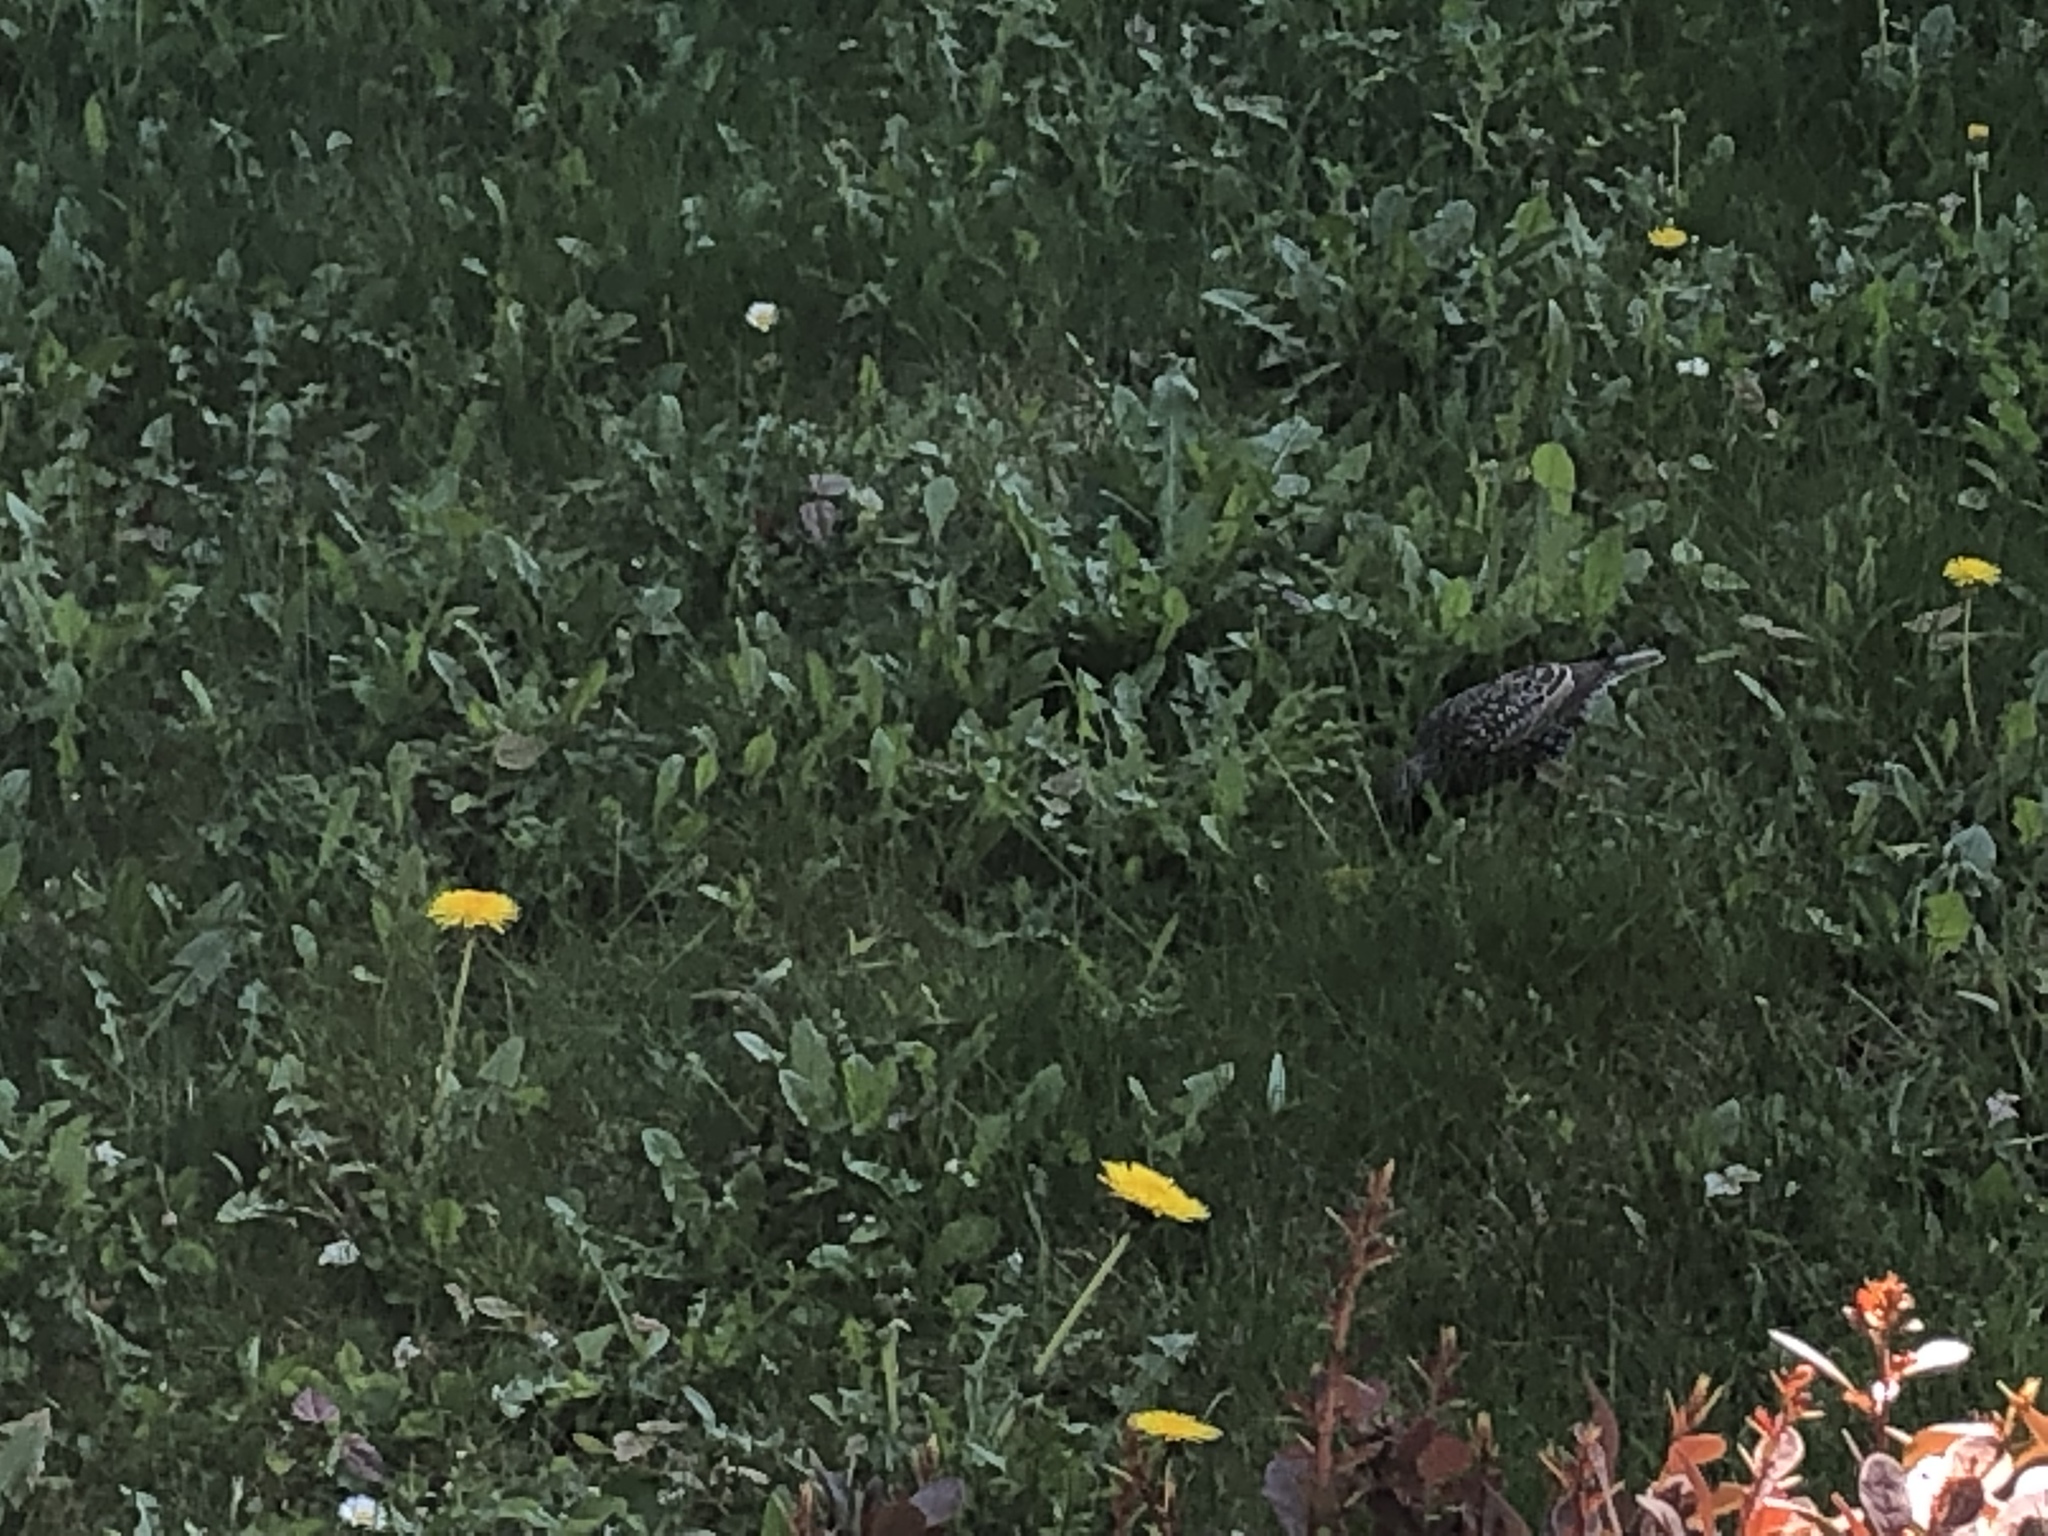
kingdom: Animalia
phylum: Chordata
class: Aves
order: Passeriformes
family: Sturnidae
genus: Sturnus
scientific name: Sturnus vulgaris
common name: Common starling
